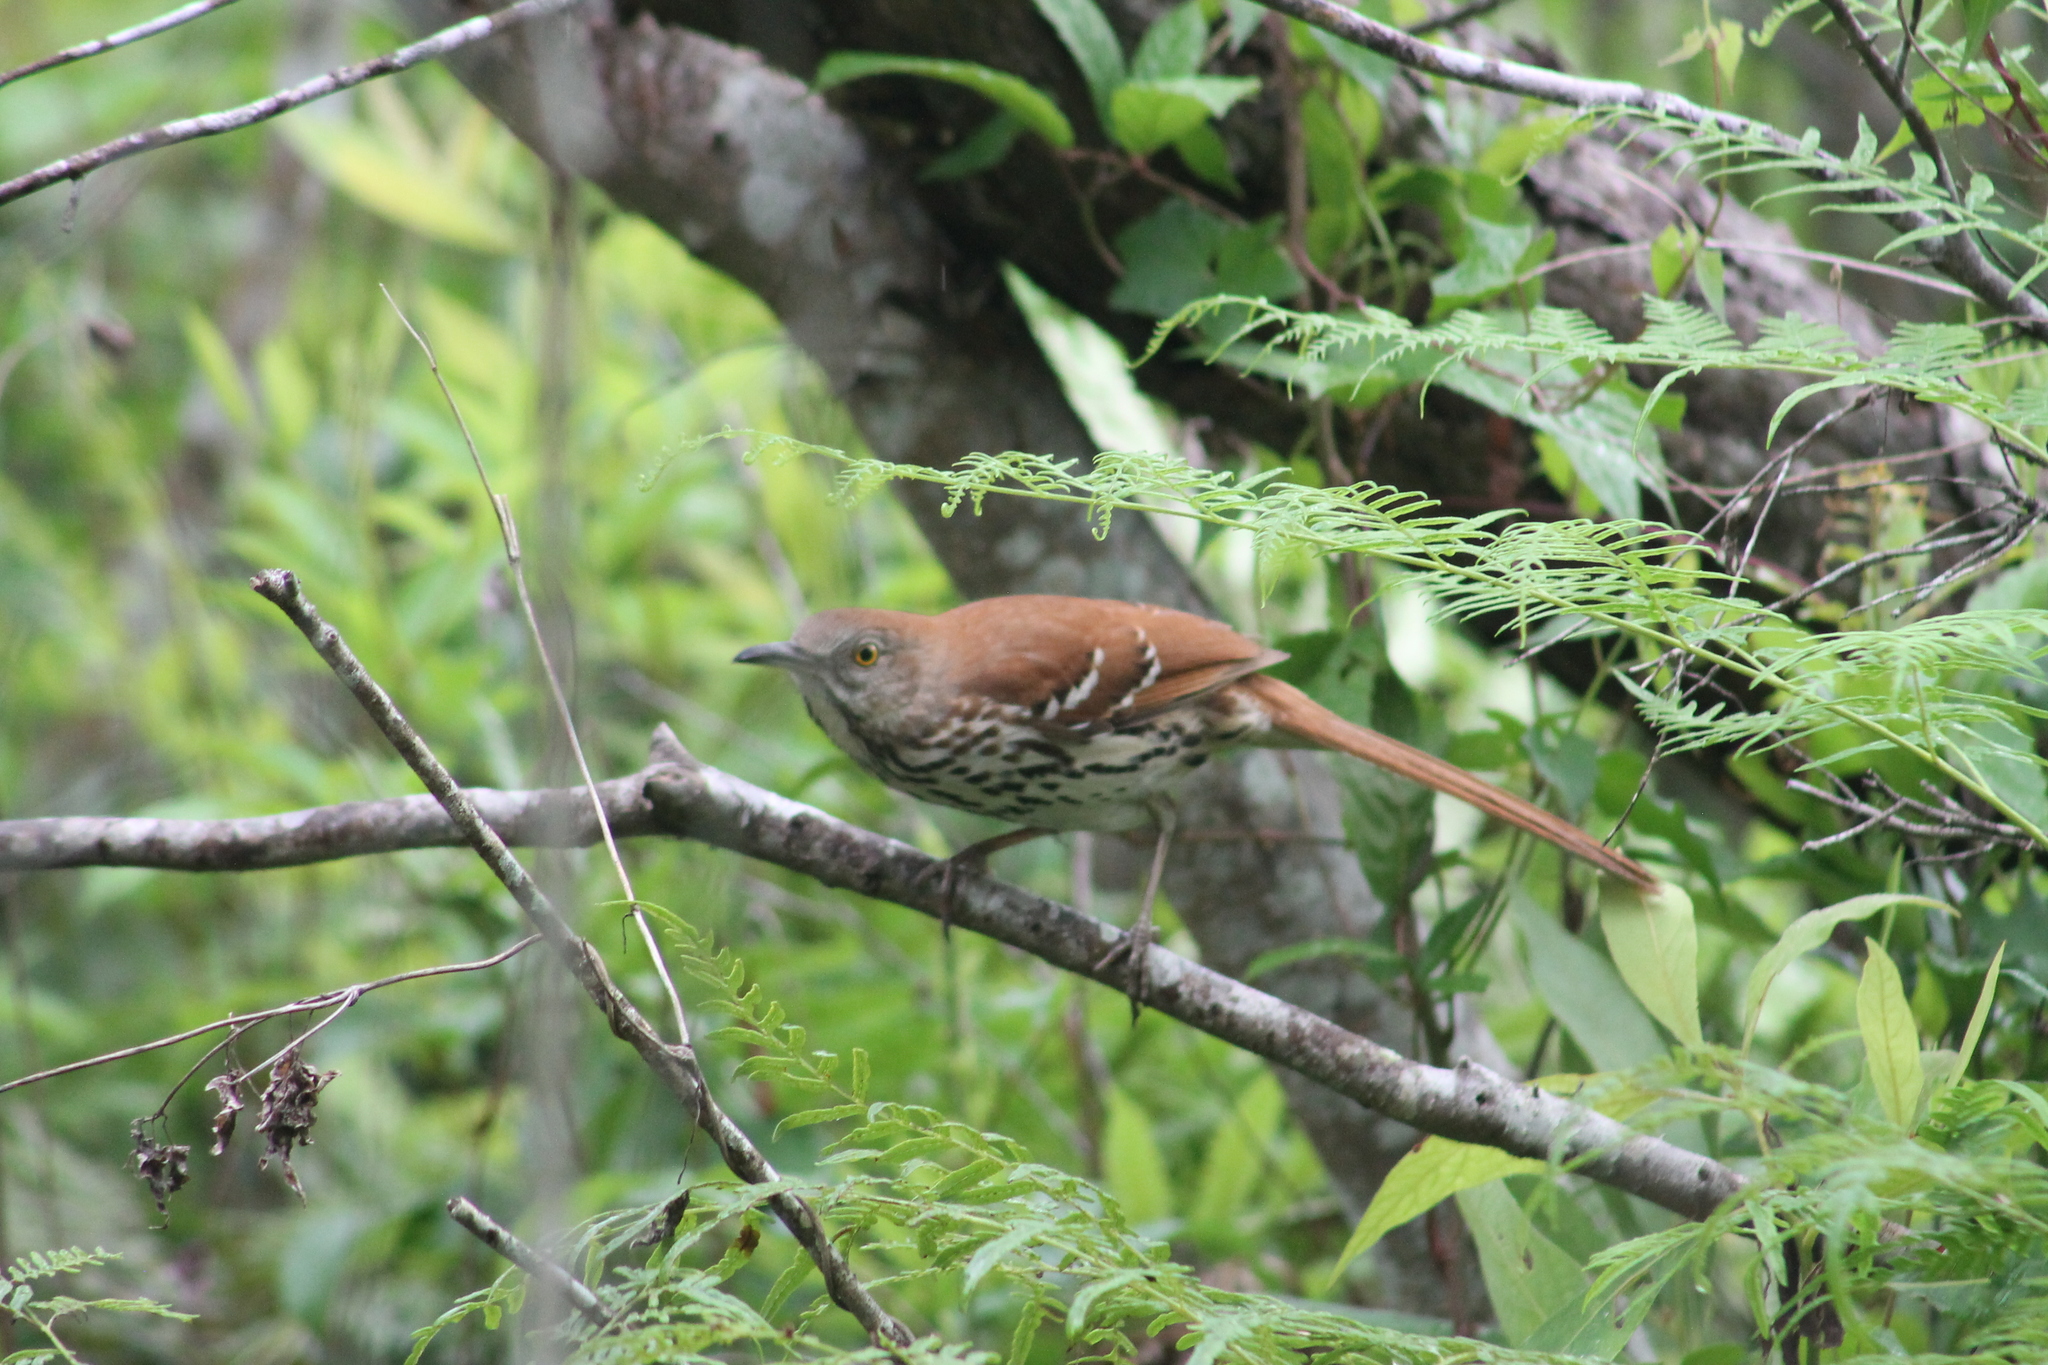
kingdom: Animalia
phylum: Chordata
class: Aves
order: Passeriformes
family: Mimidae
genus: Toxostoma
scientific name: Toxostoma rufum
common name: Brown thrasher
